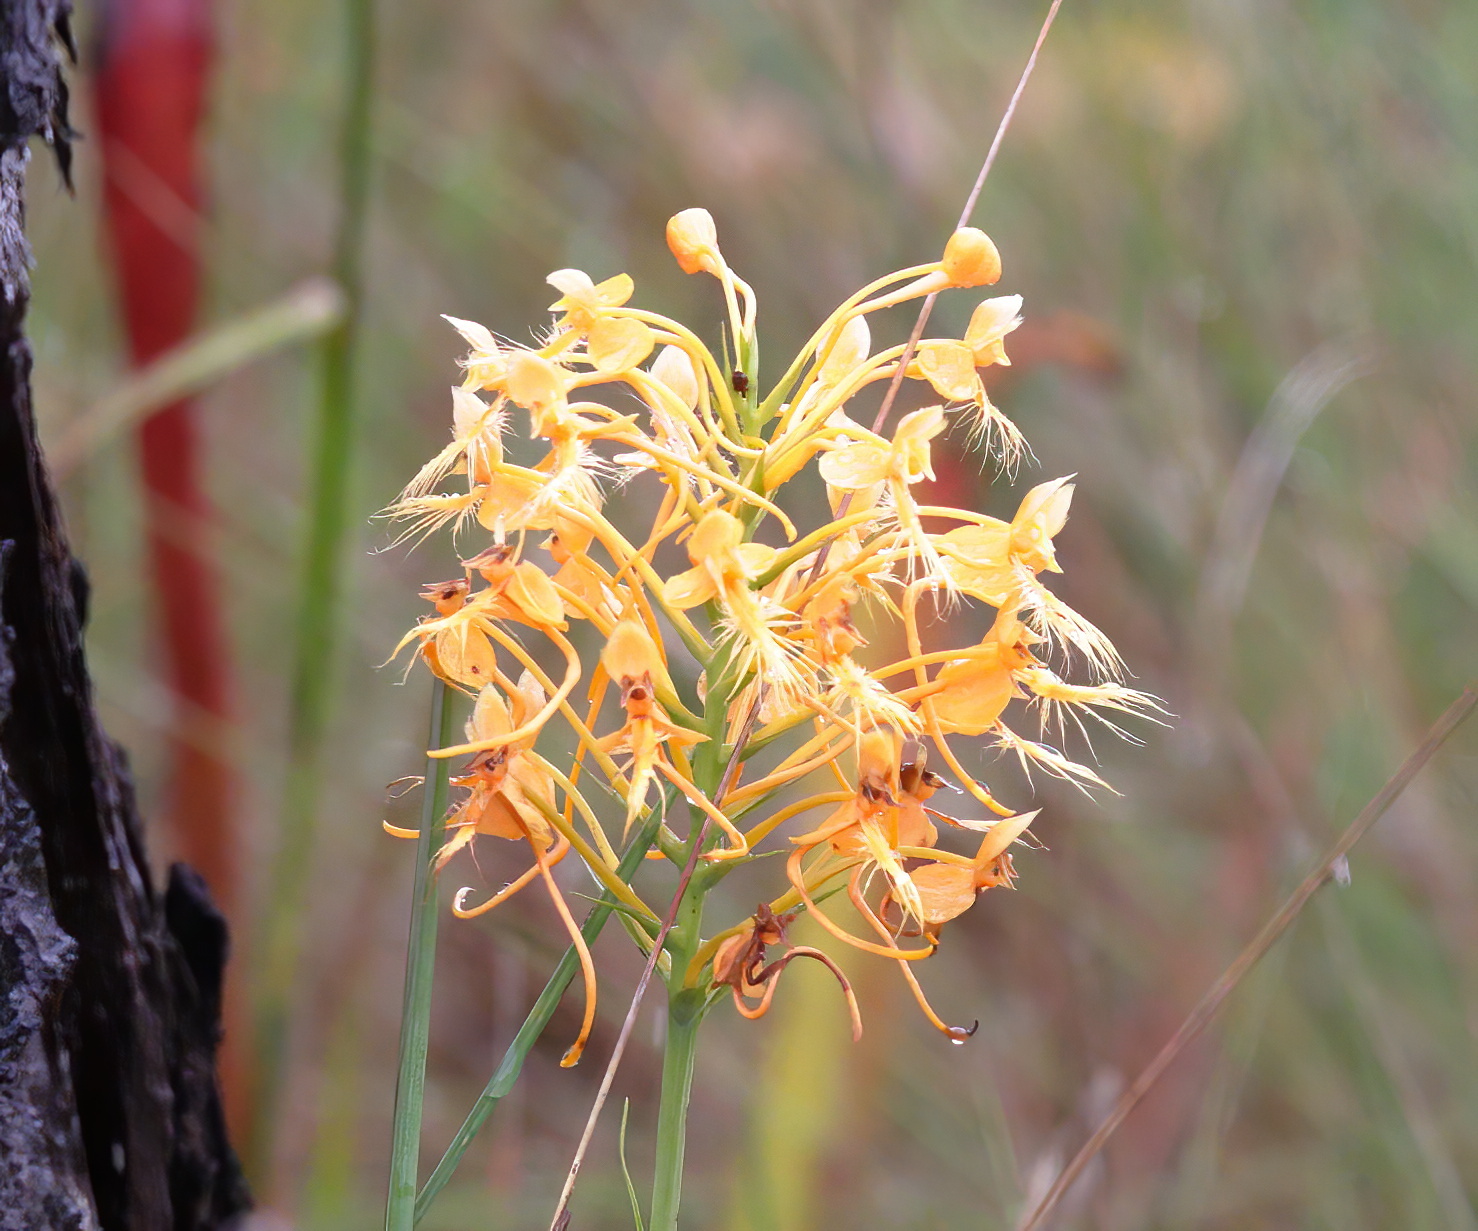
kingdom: Plantae
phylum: Tracheophyta
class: Liliopsida
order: Asparagales
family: Orchidaceae
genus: Platanthera
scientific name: Platanthera ciliaris
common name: Yellow fringed orchid
